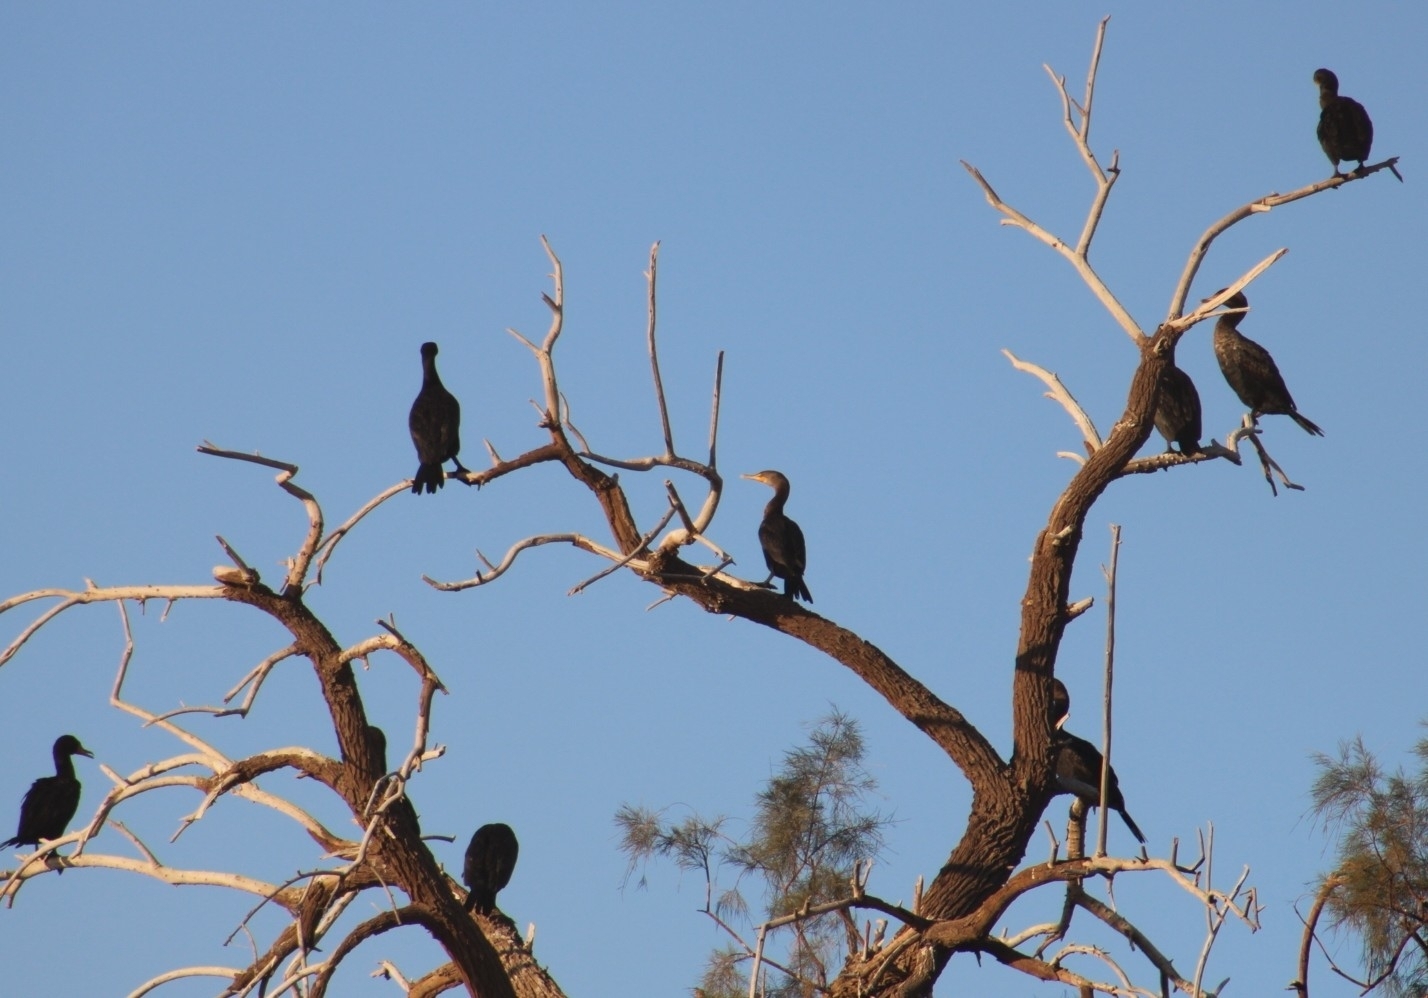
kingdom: Animalia
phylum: Chordata
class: Aves
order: Suliformes
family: Phalacrocoracidae
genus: Phalacrocorax
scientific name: Phalacrocorax auritus
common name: Double-crested cormorant
